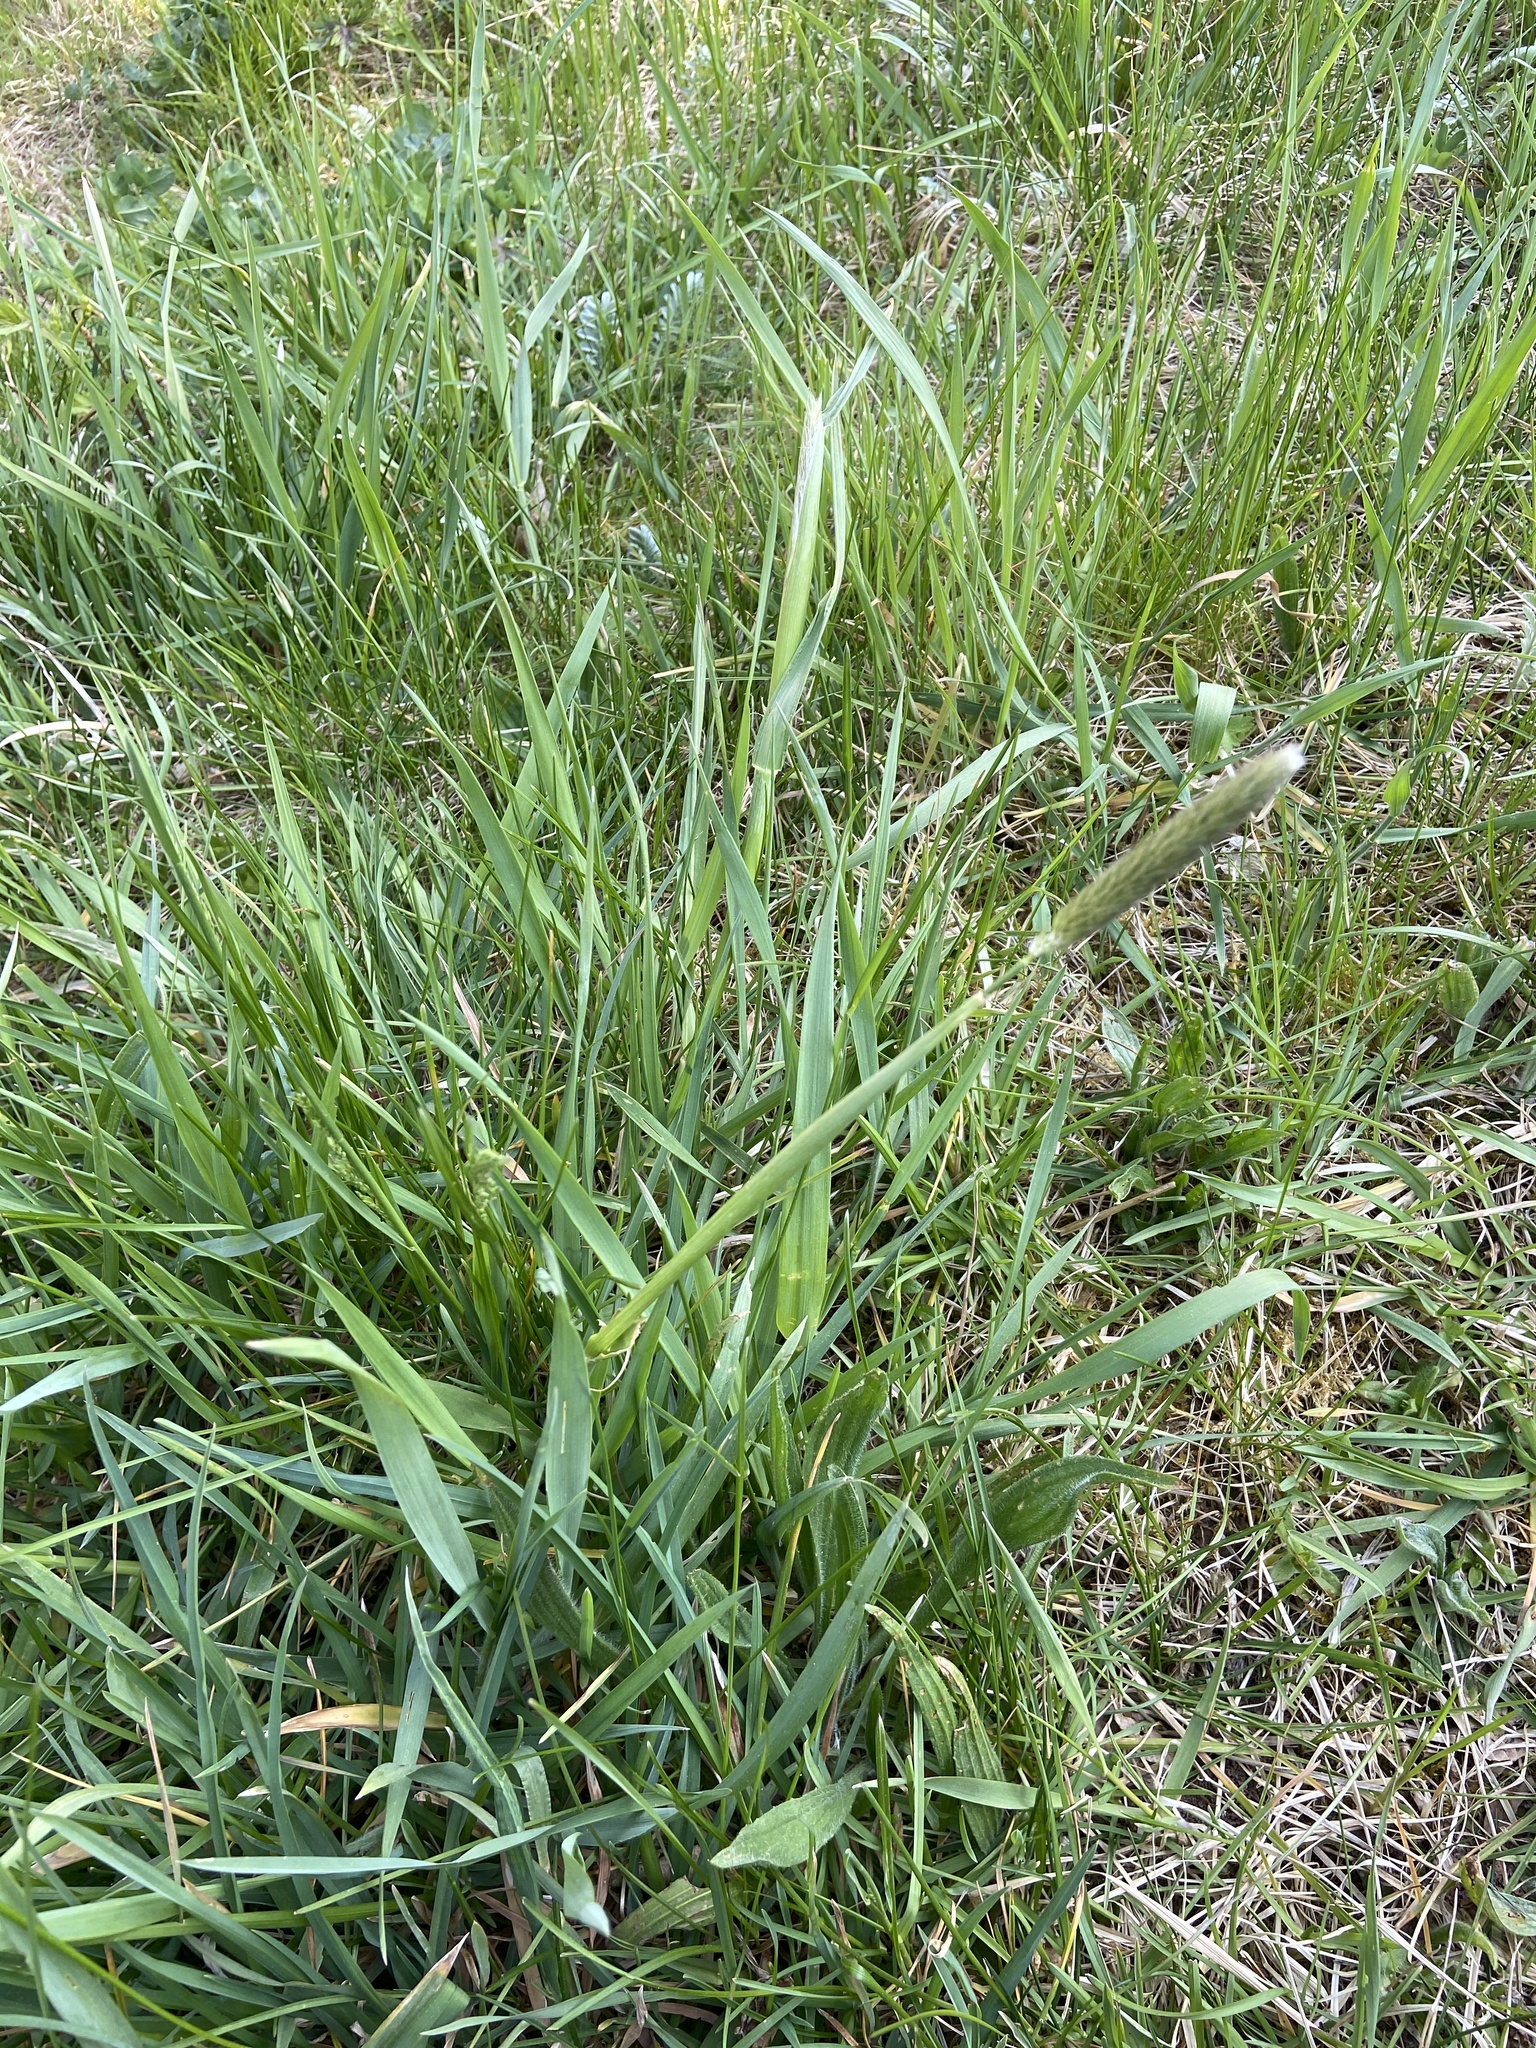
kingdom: Plantae
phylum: Tracheophyta
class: Liliopsida
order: Poales
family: Poaceae
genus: Alopecurus
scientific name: Alopecurus pratensis
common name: Meadow foxtail
